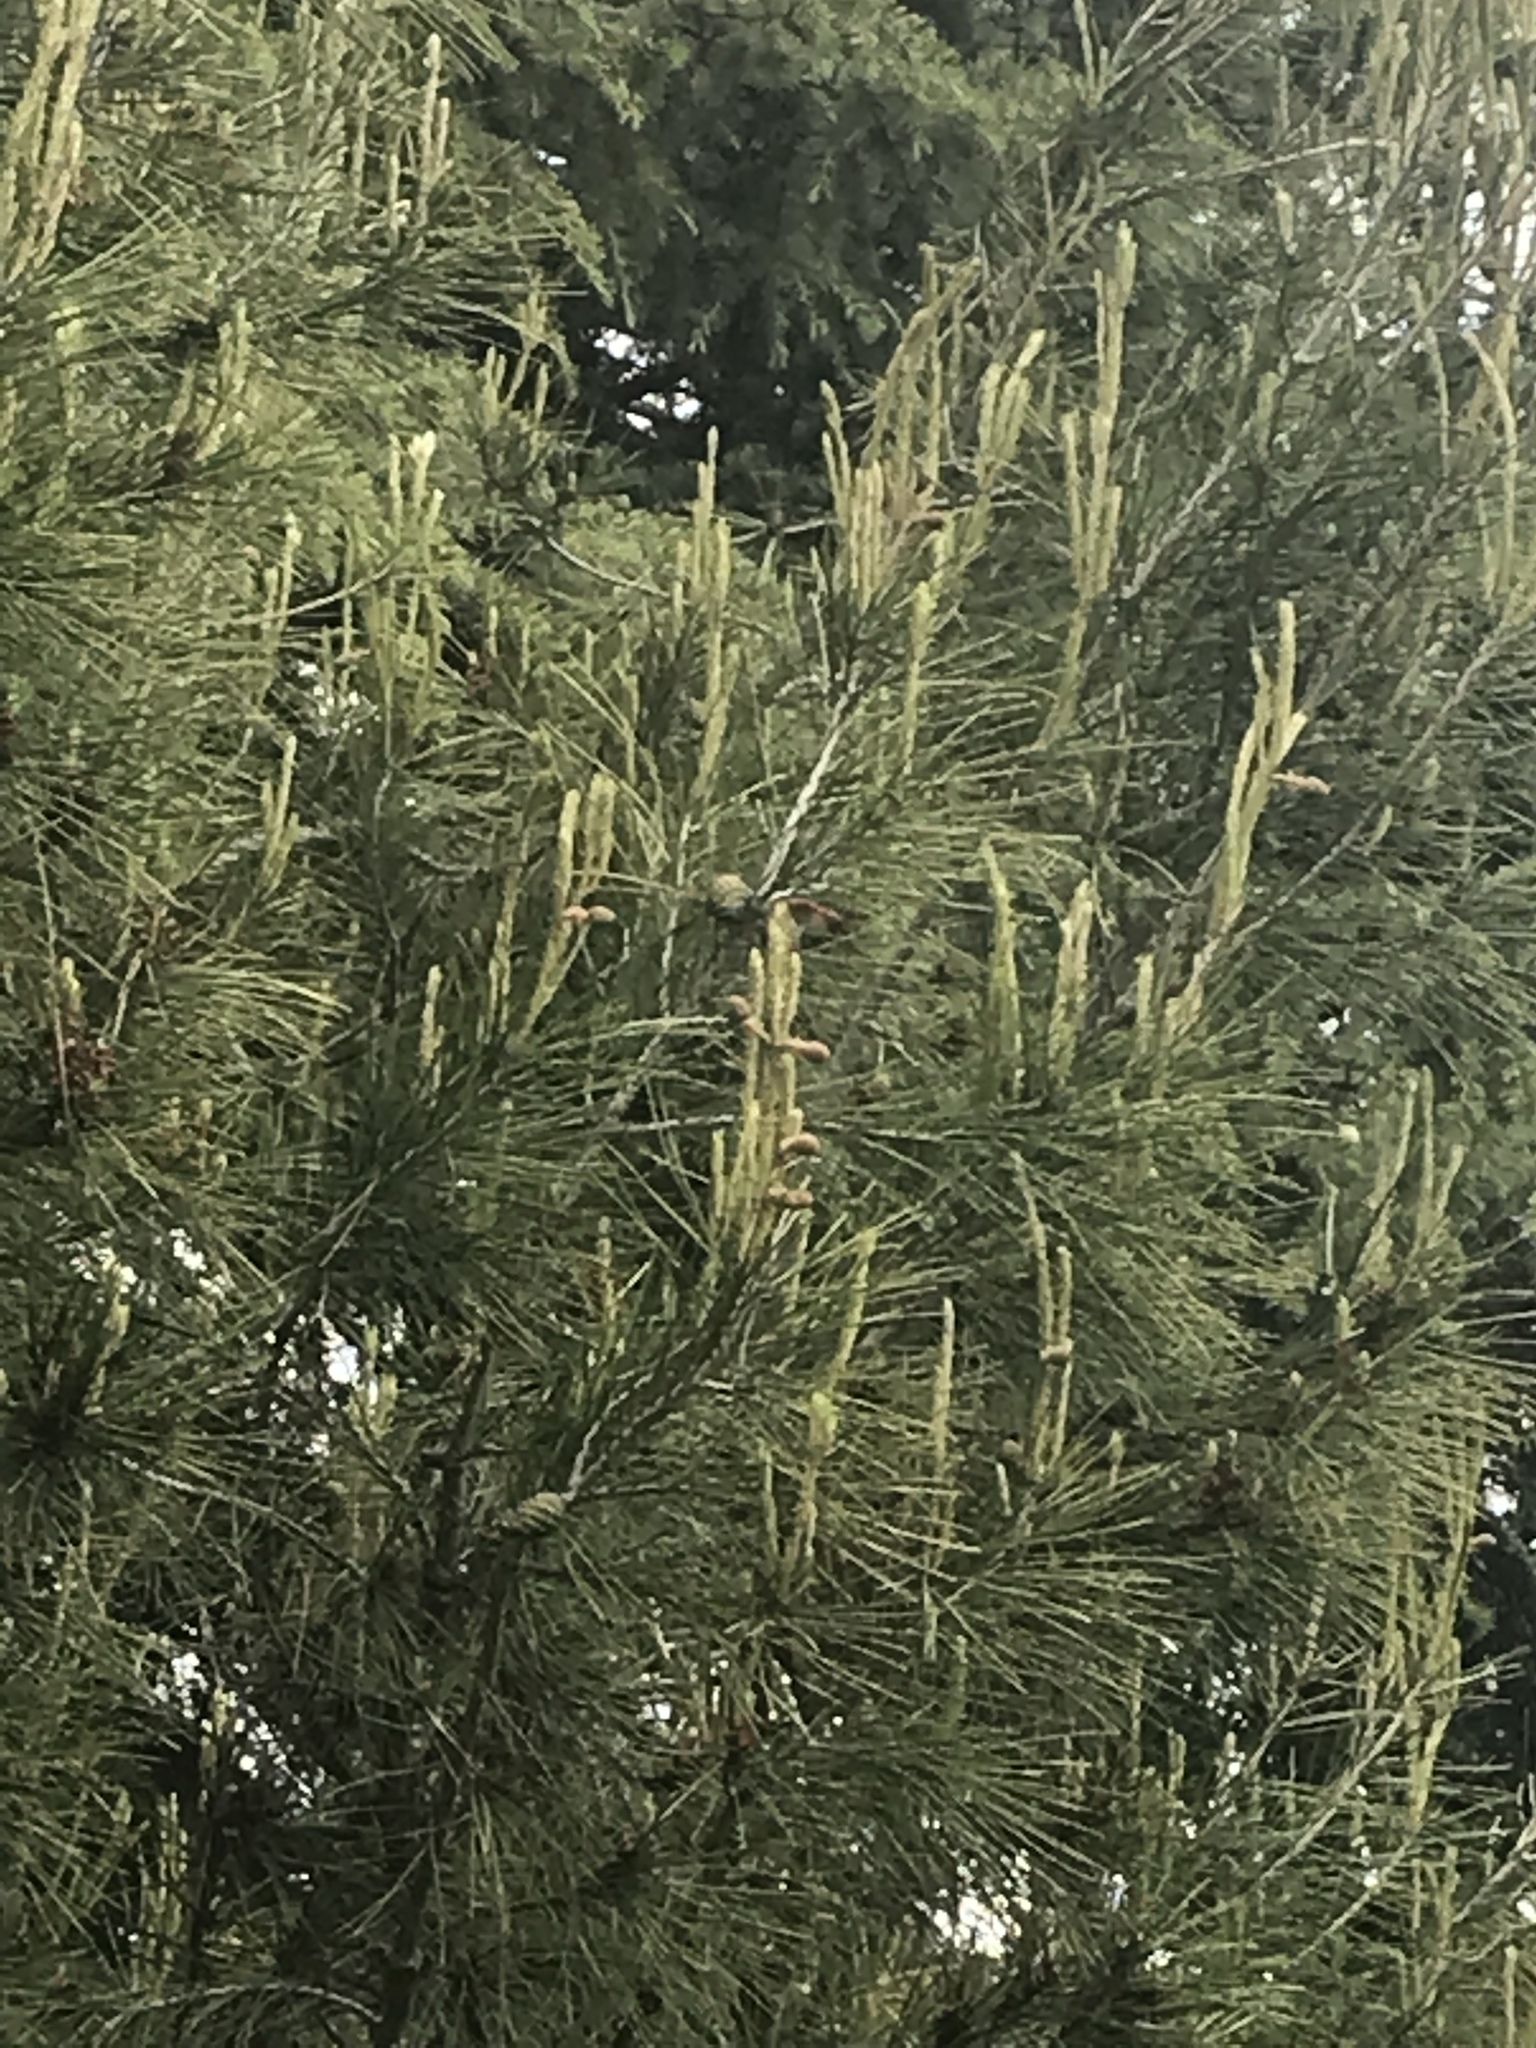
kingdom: Animalia
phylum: Arthropoda
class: Insecta
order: Odonata
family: Libellulidae
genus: Sympetrum
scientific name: Sympetrum illotum
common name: Cardinal meadowhawk
